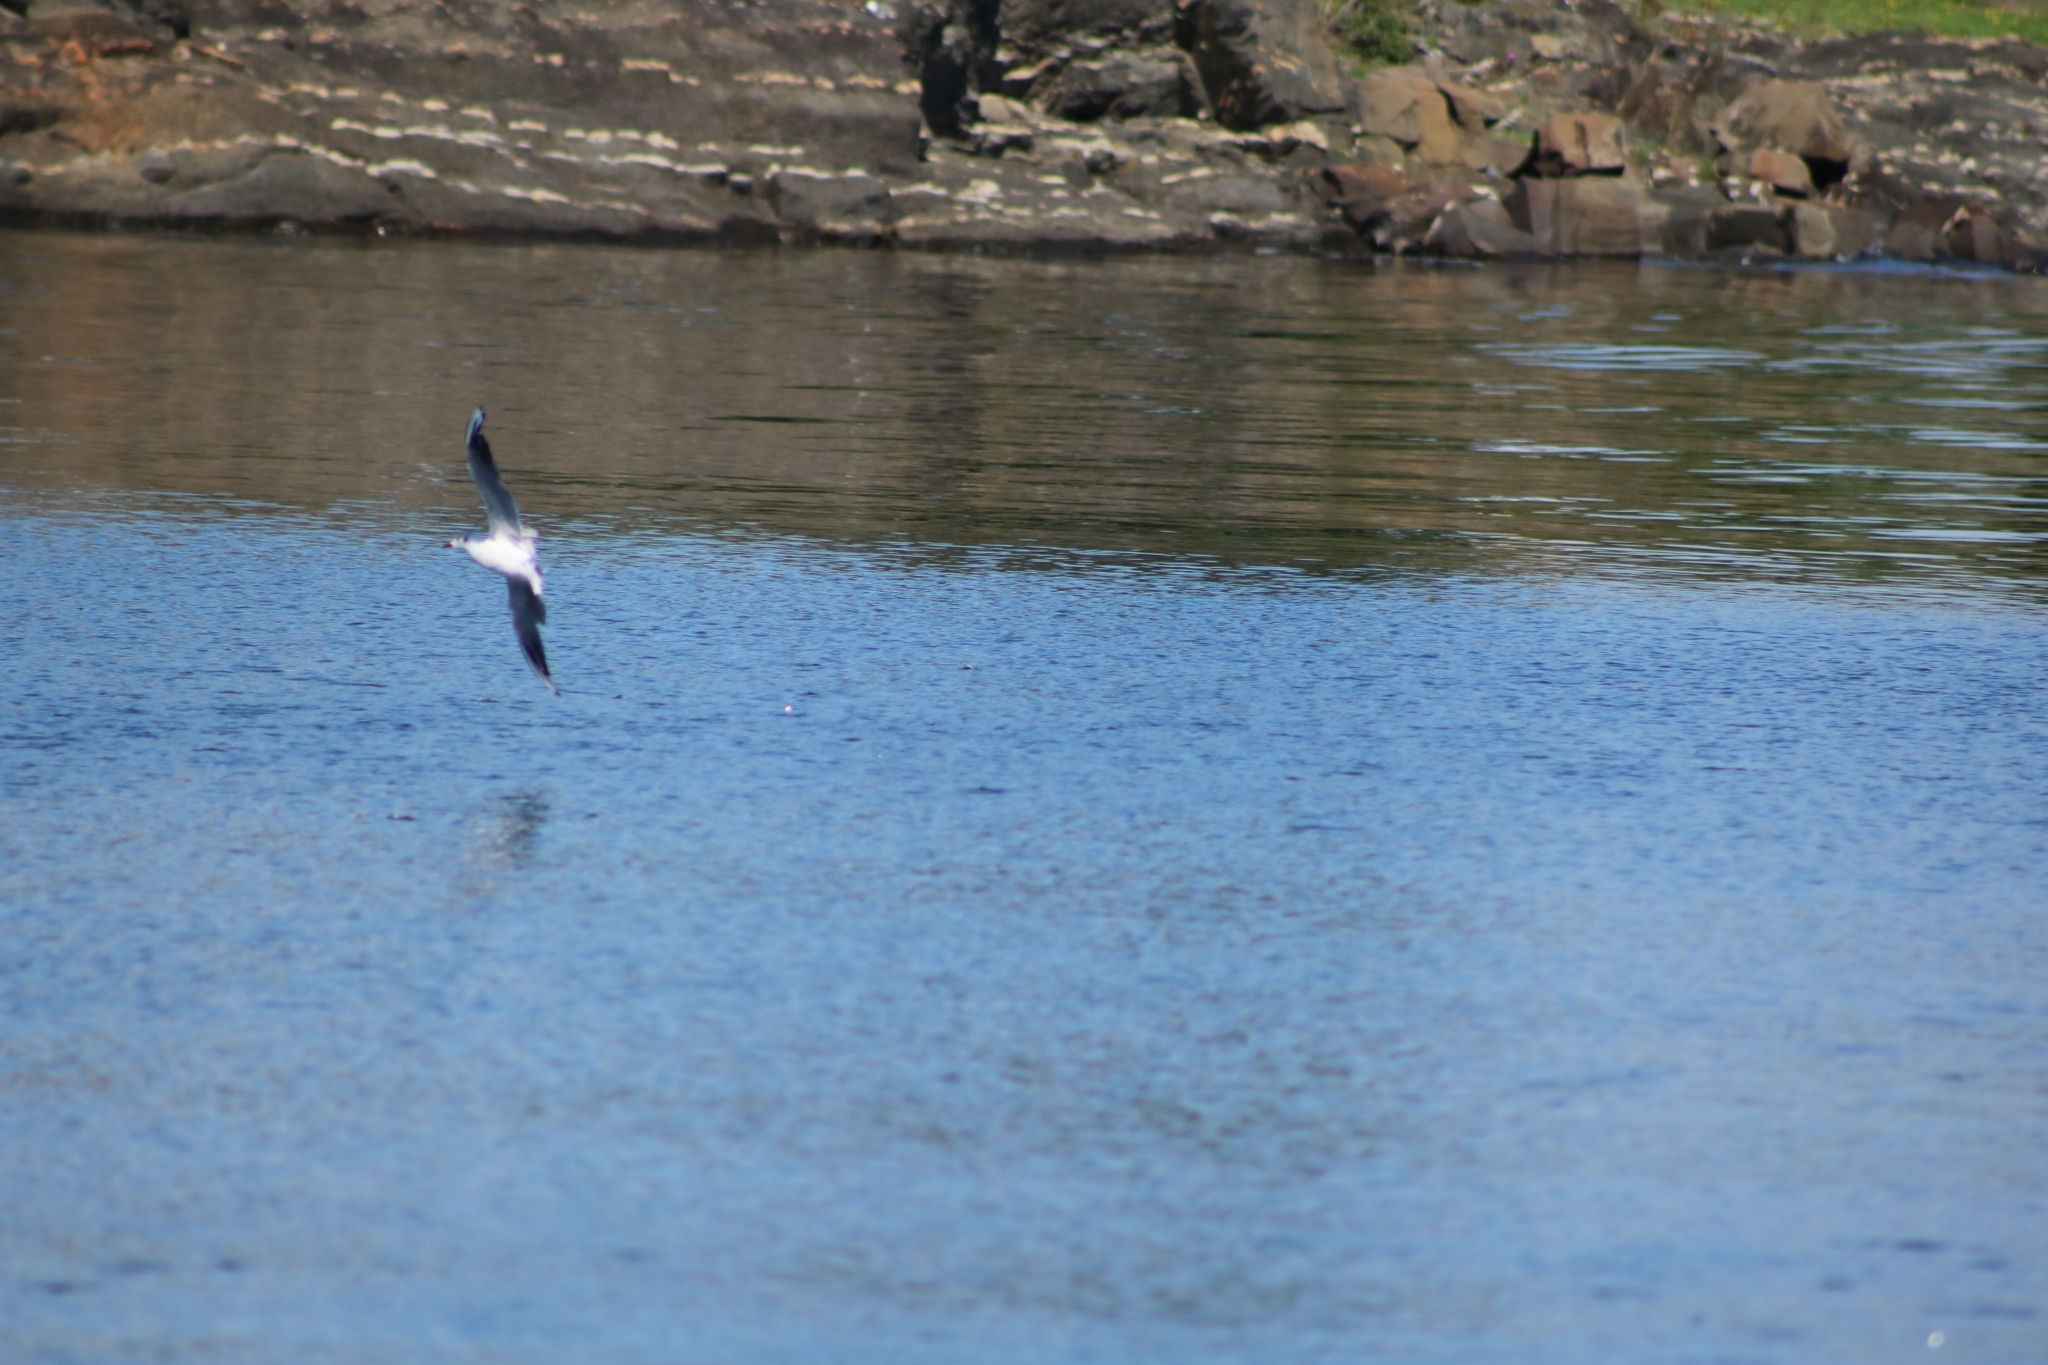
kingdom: Animalia
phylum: Chordata
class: Aves
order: Charadriiformes
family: Laridae
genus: Chroicocephalus
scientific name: Chroicocephalus ridibundus
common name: Black-headed gull
